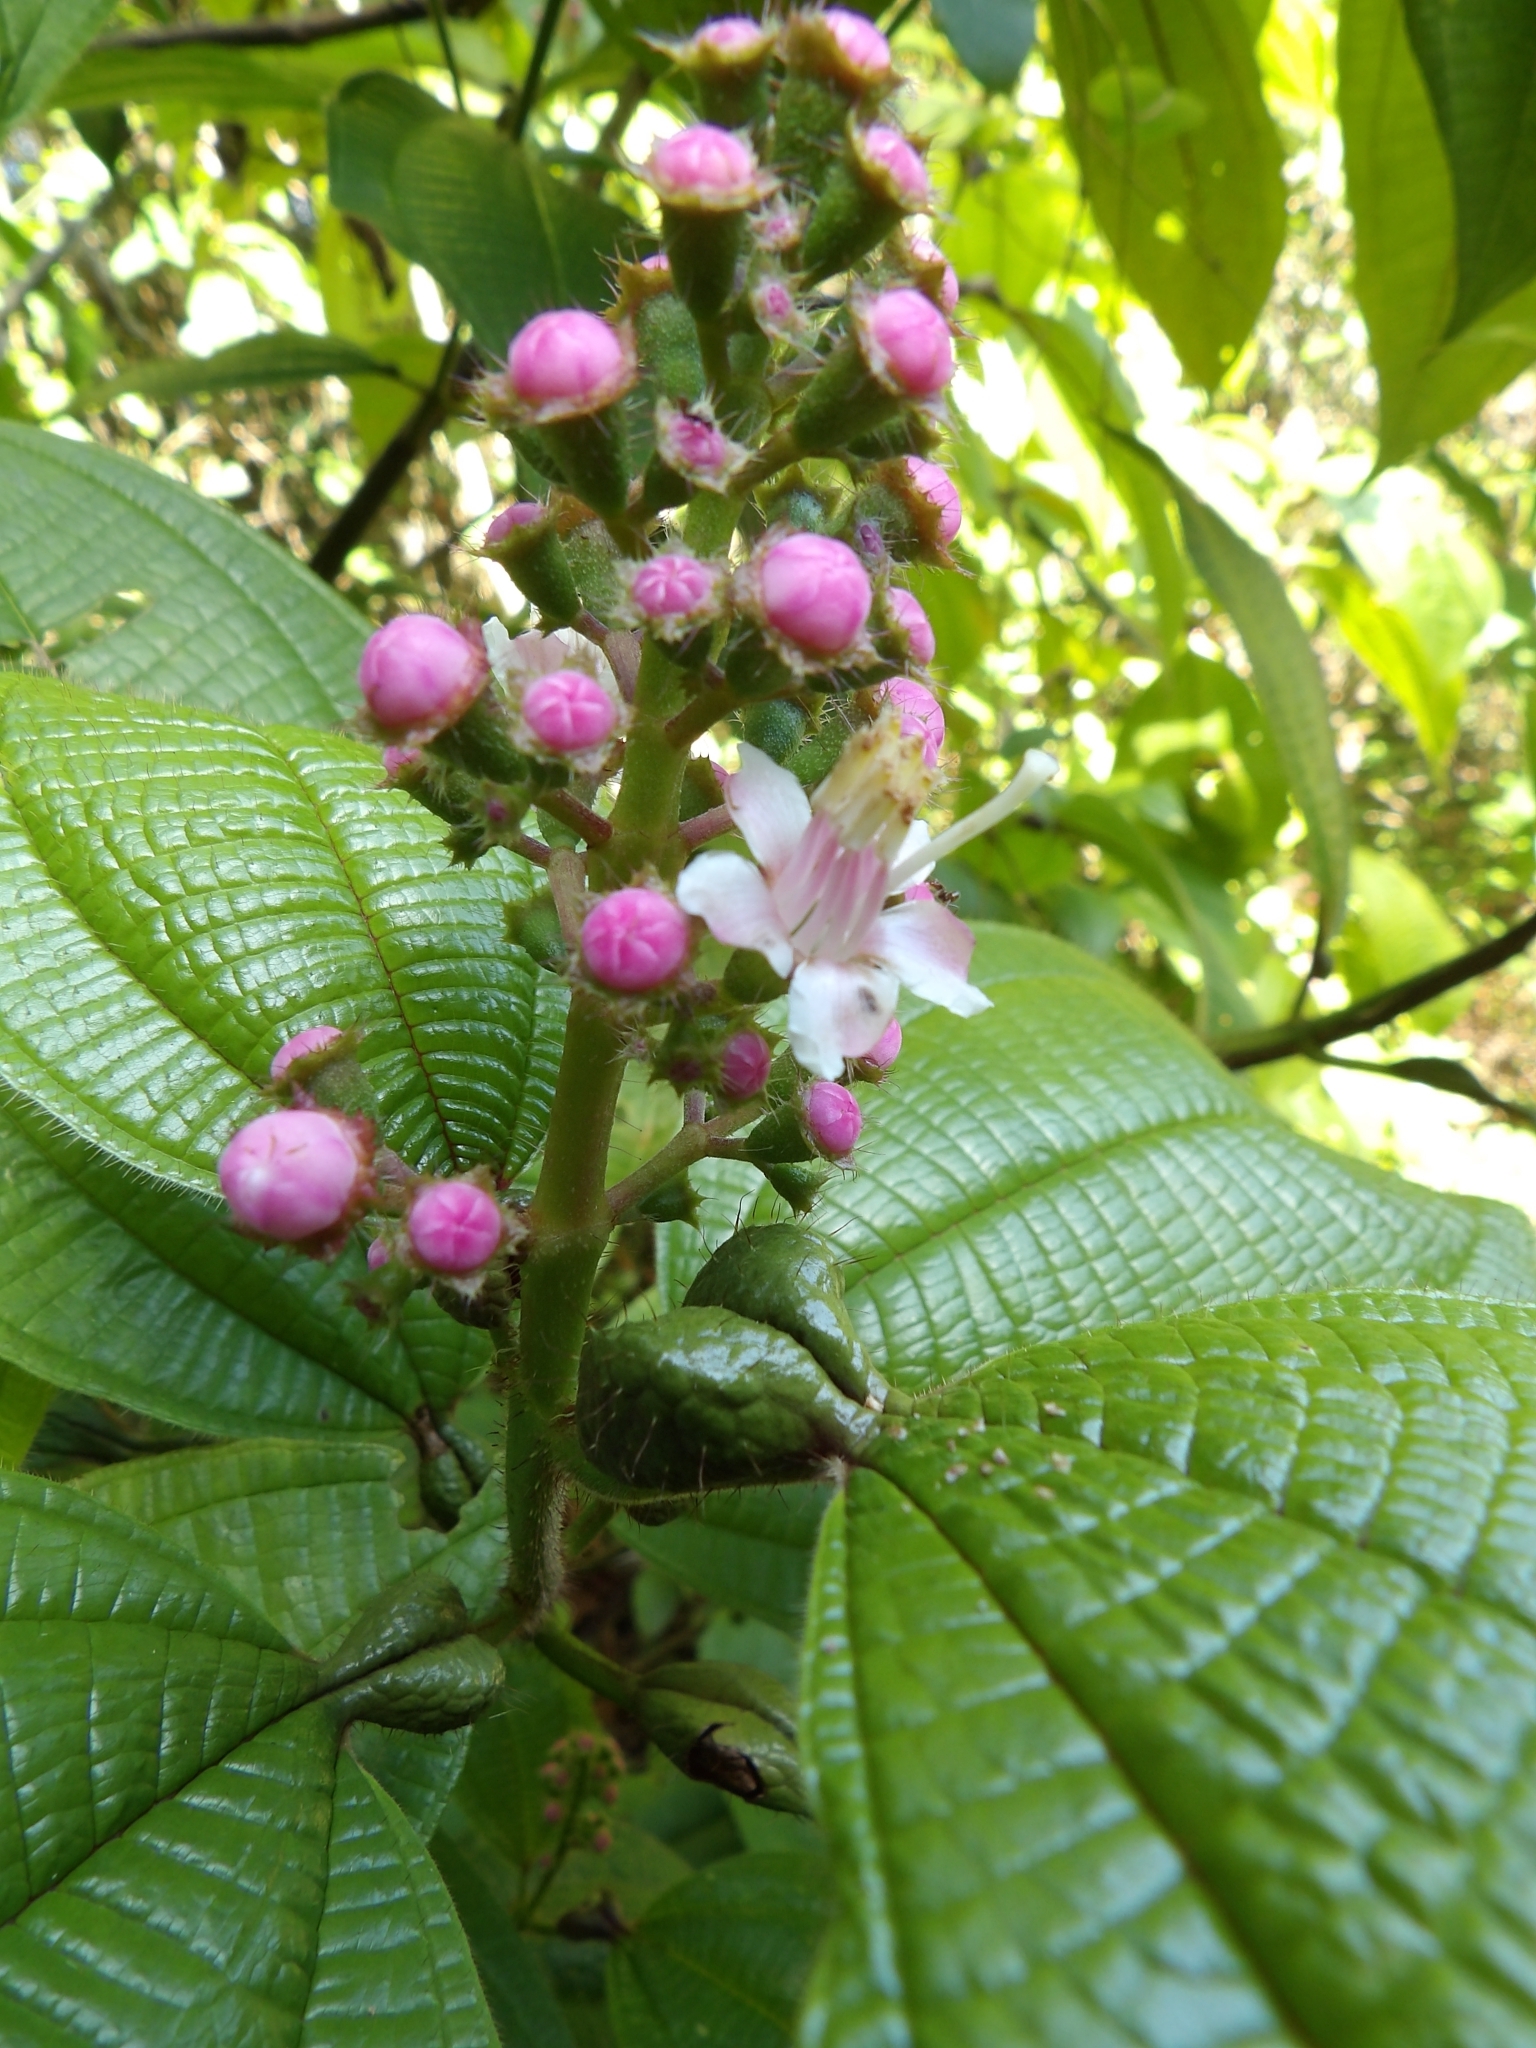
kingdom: Plantae
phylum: Tracheophyta
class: Magnoliopsida
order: Myrtales
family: Melastomataceae
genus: Miconia
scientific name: Miconia tococa
